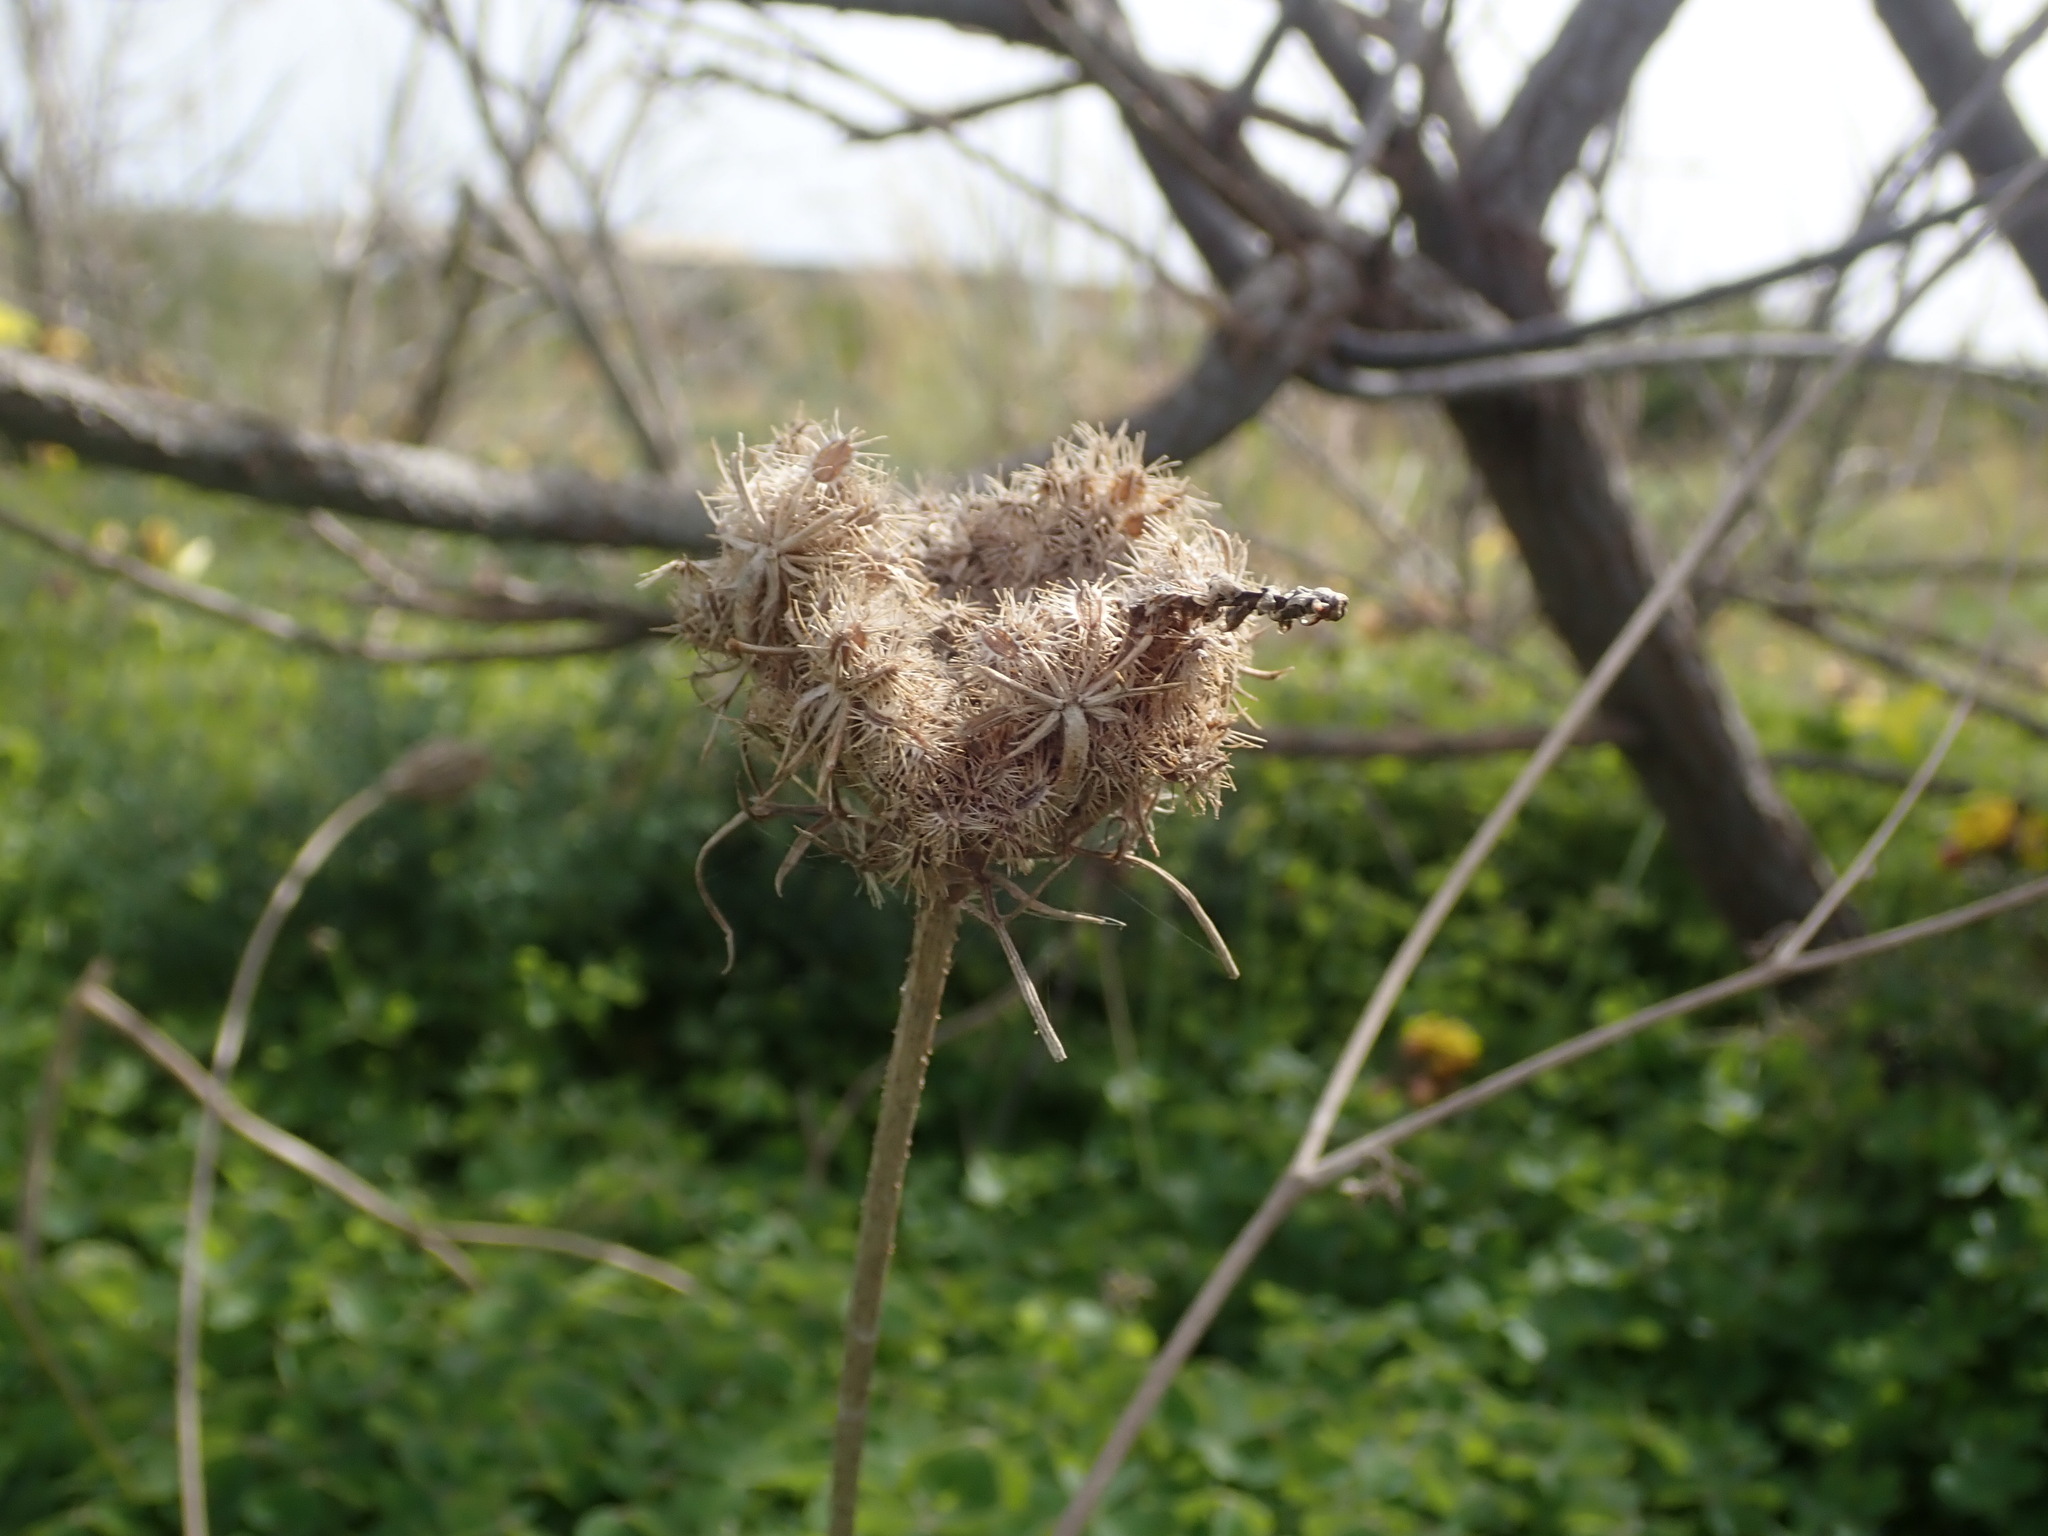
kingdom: Plantae
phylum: Tracheophyta
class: Magnoliopsida
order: Apiales
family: Apiaceae
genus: Daucus
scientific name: Daucus carota
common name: Wild carrot
